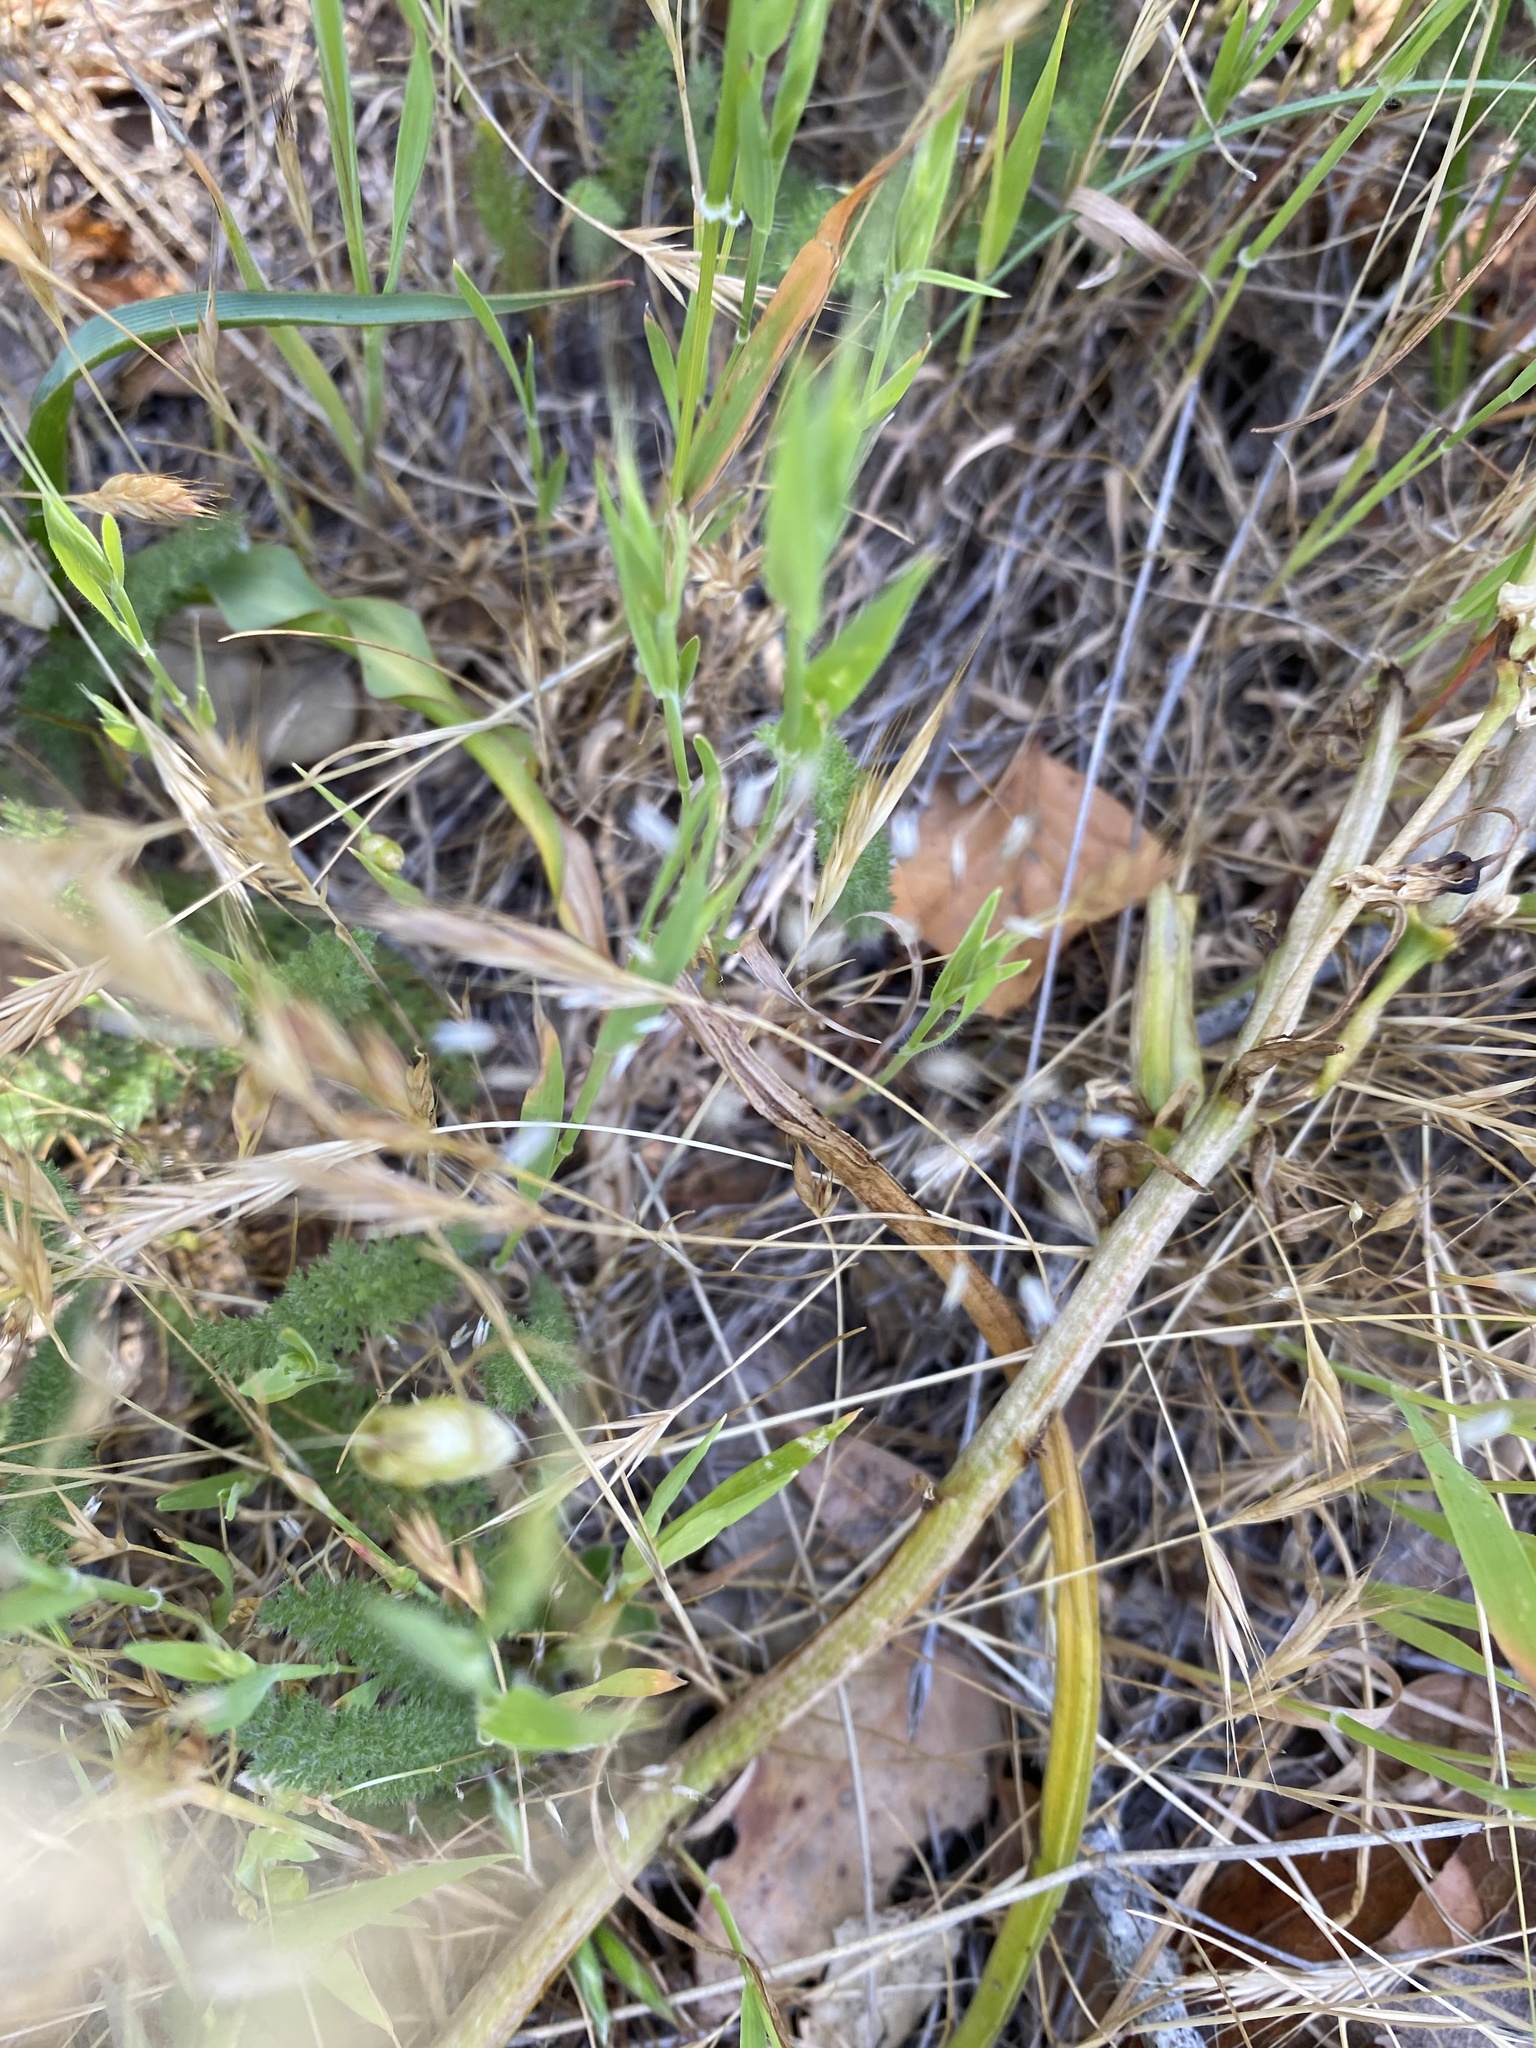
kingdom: Plantae
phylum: Tracheophyta
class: Liliopsida
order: Poales
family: Poaceae
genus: Aira
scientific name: Aira caryophyllea
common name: Silver hairgrass
